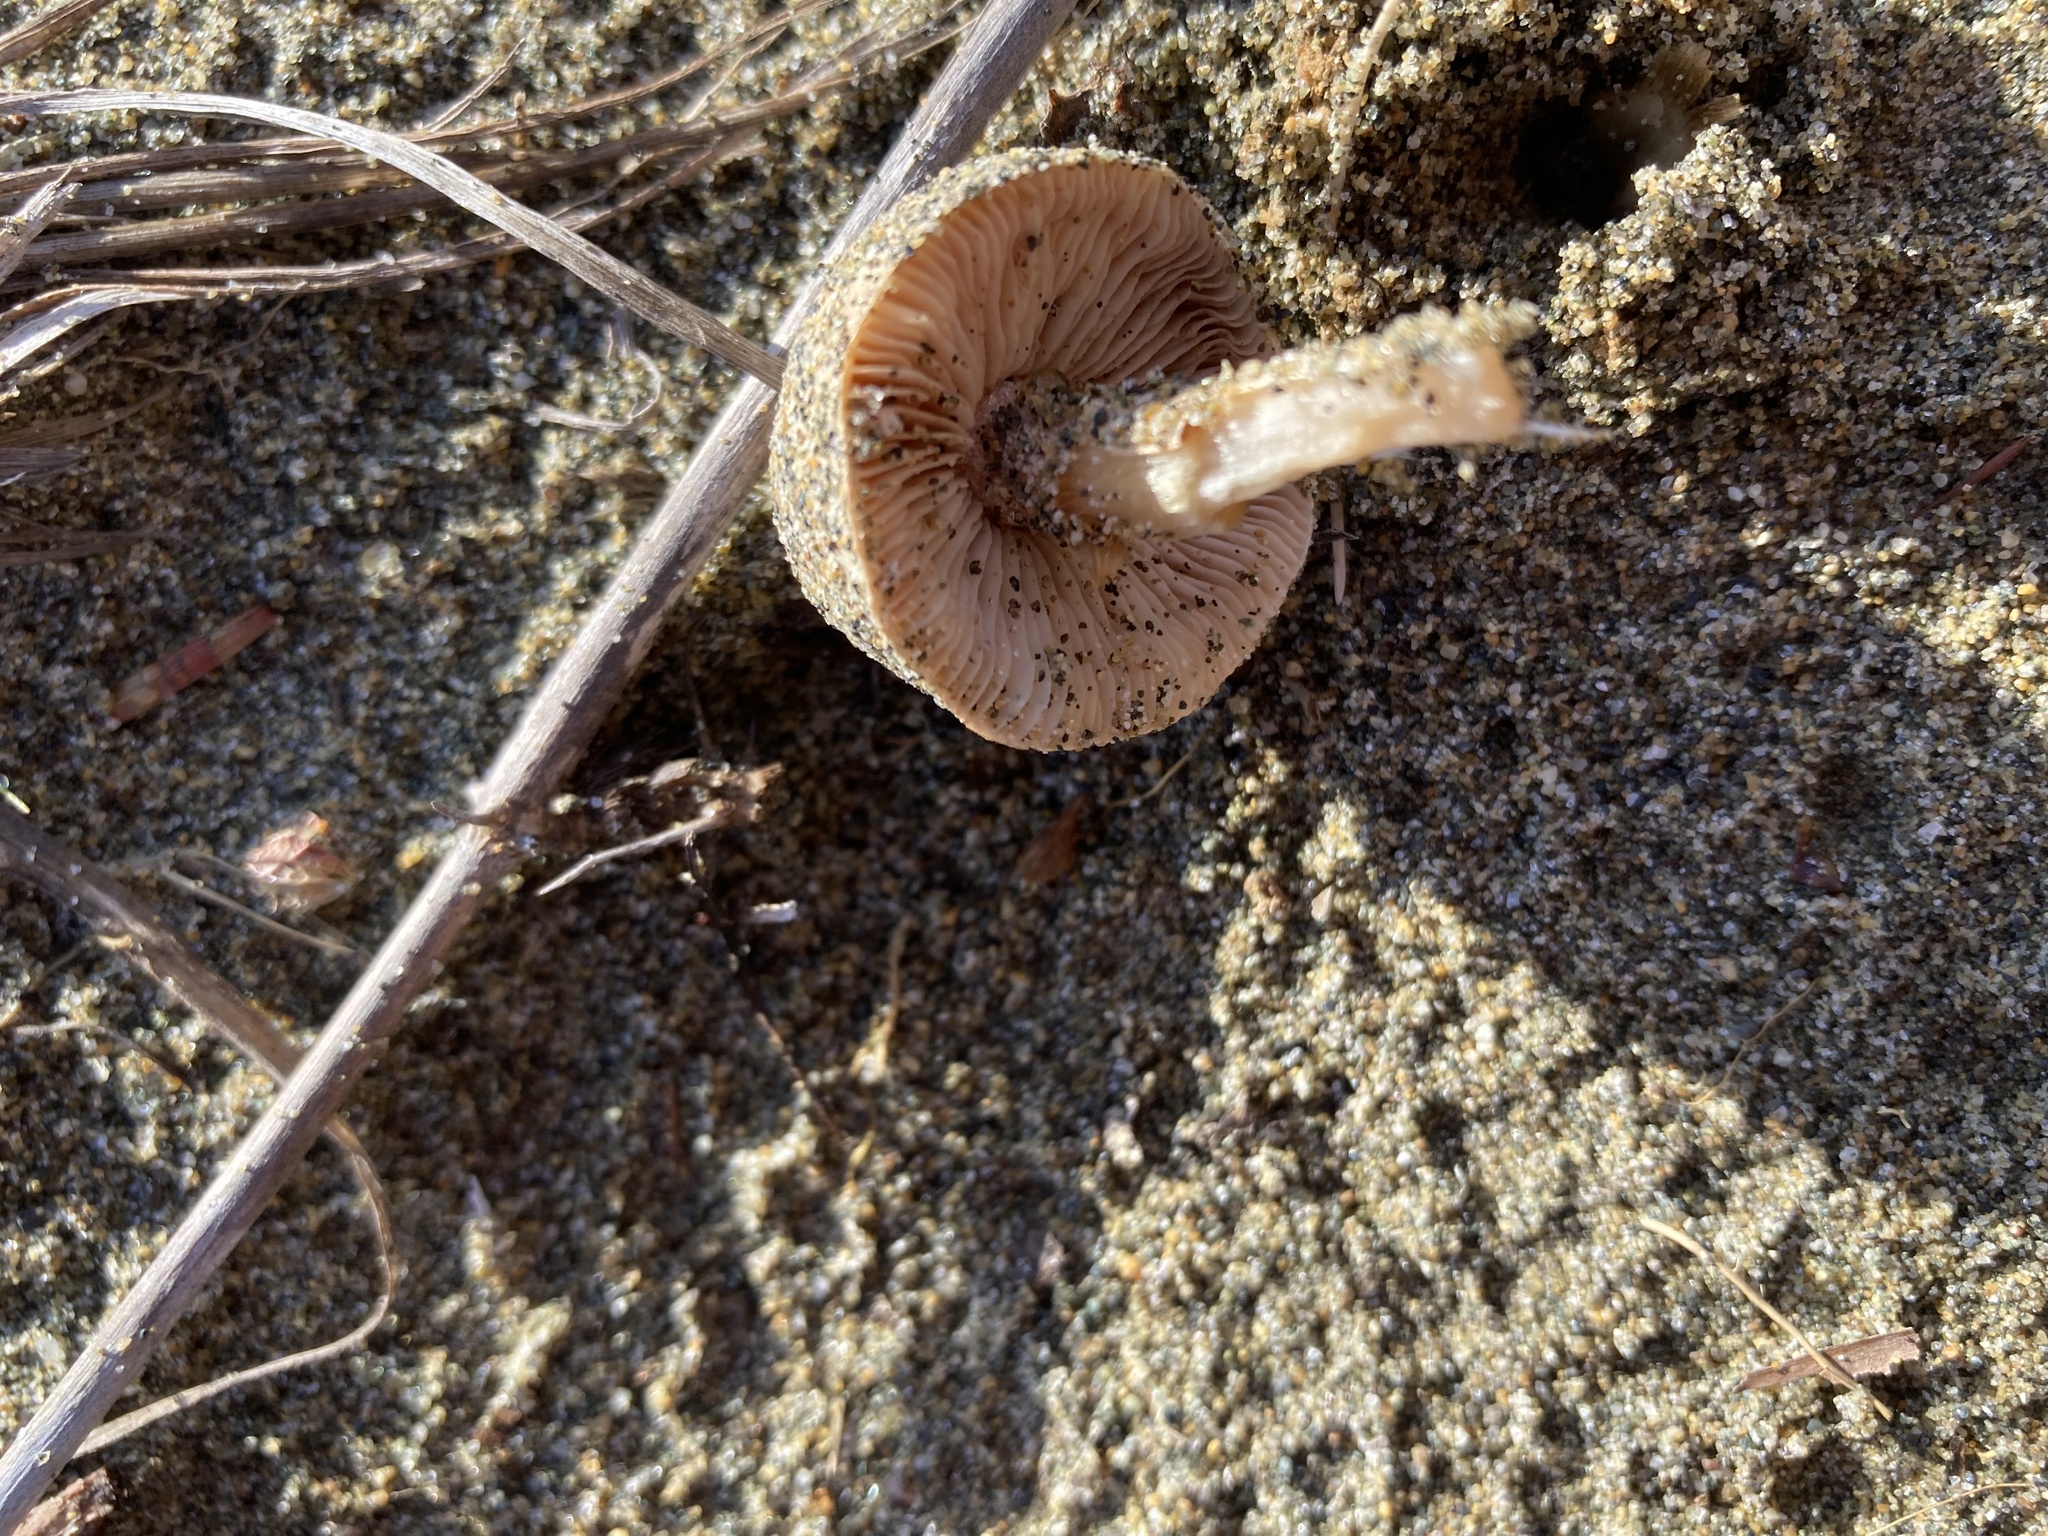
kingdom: Fungi
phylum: Basidiomycota
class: Agaricomycetes
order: Agaricales
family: Psathyrellaceae
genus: Psathyrella
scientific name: Psathyrella ammophila
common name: Dune brittlestem
